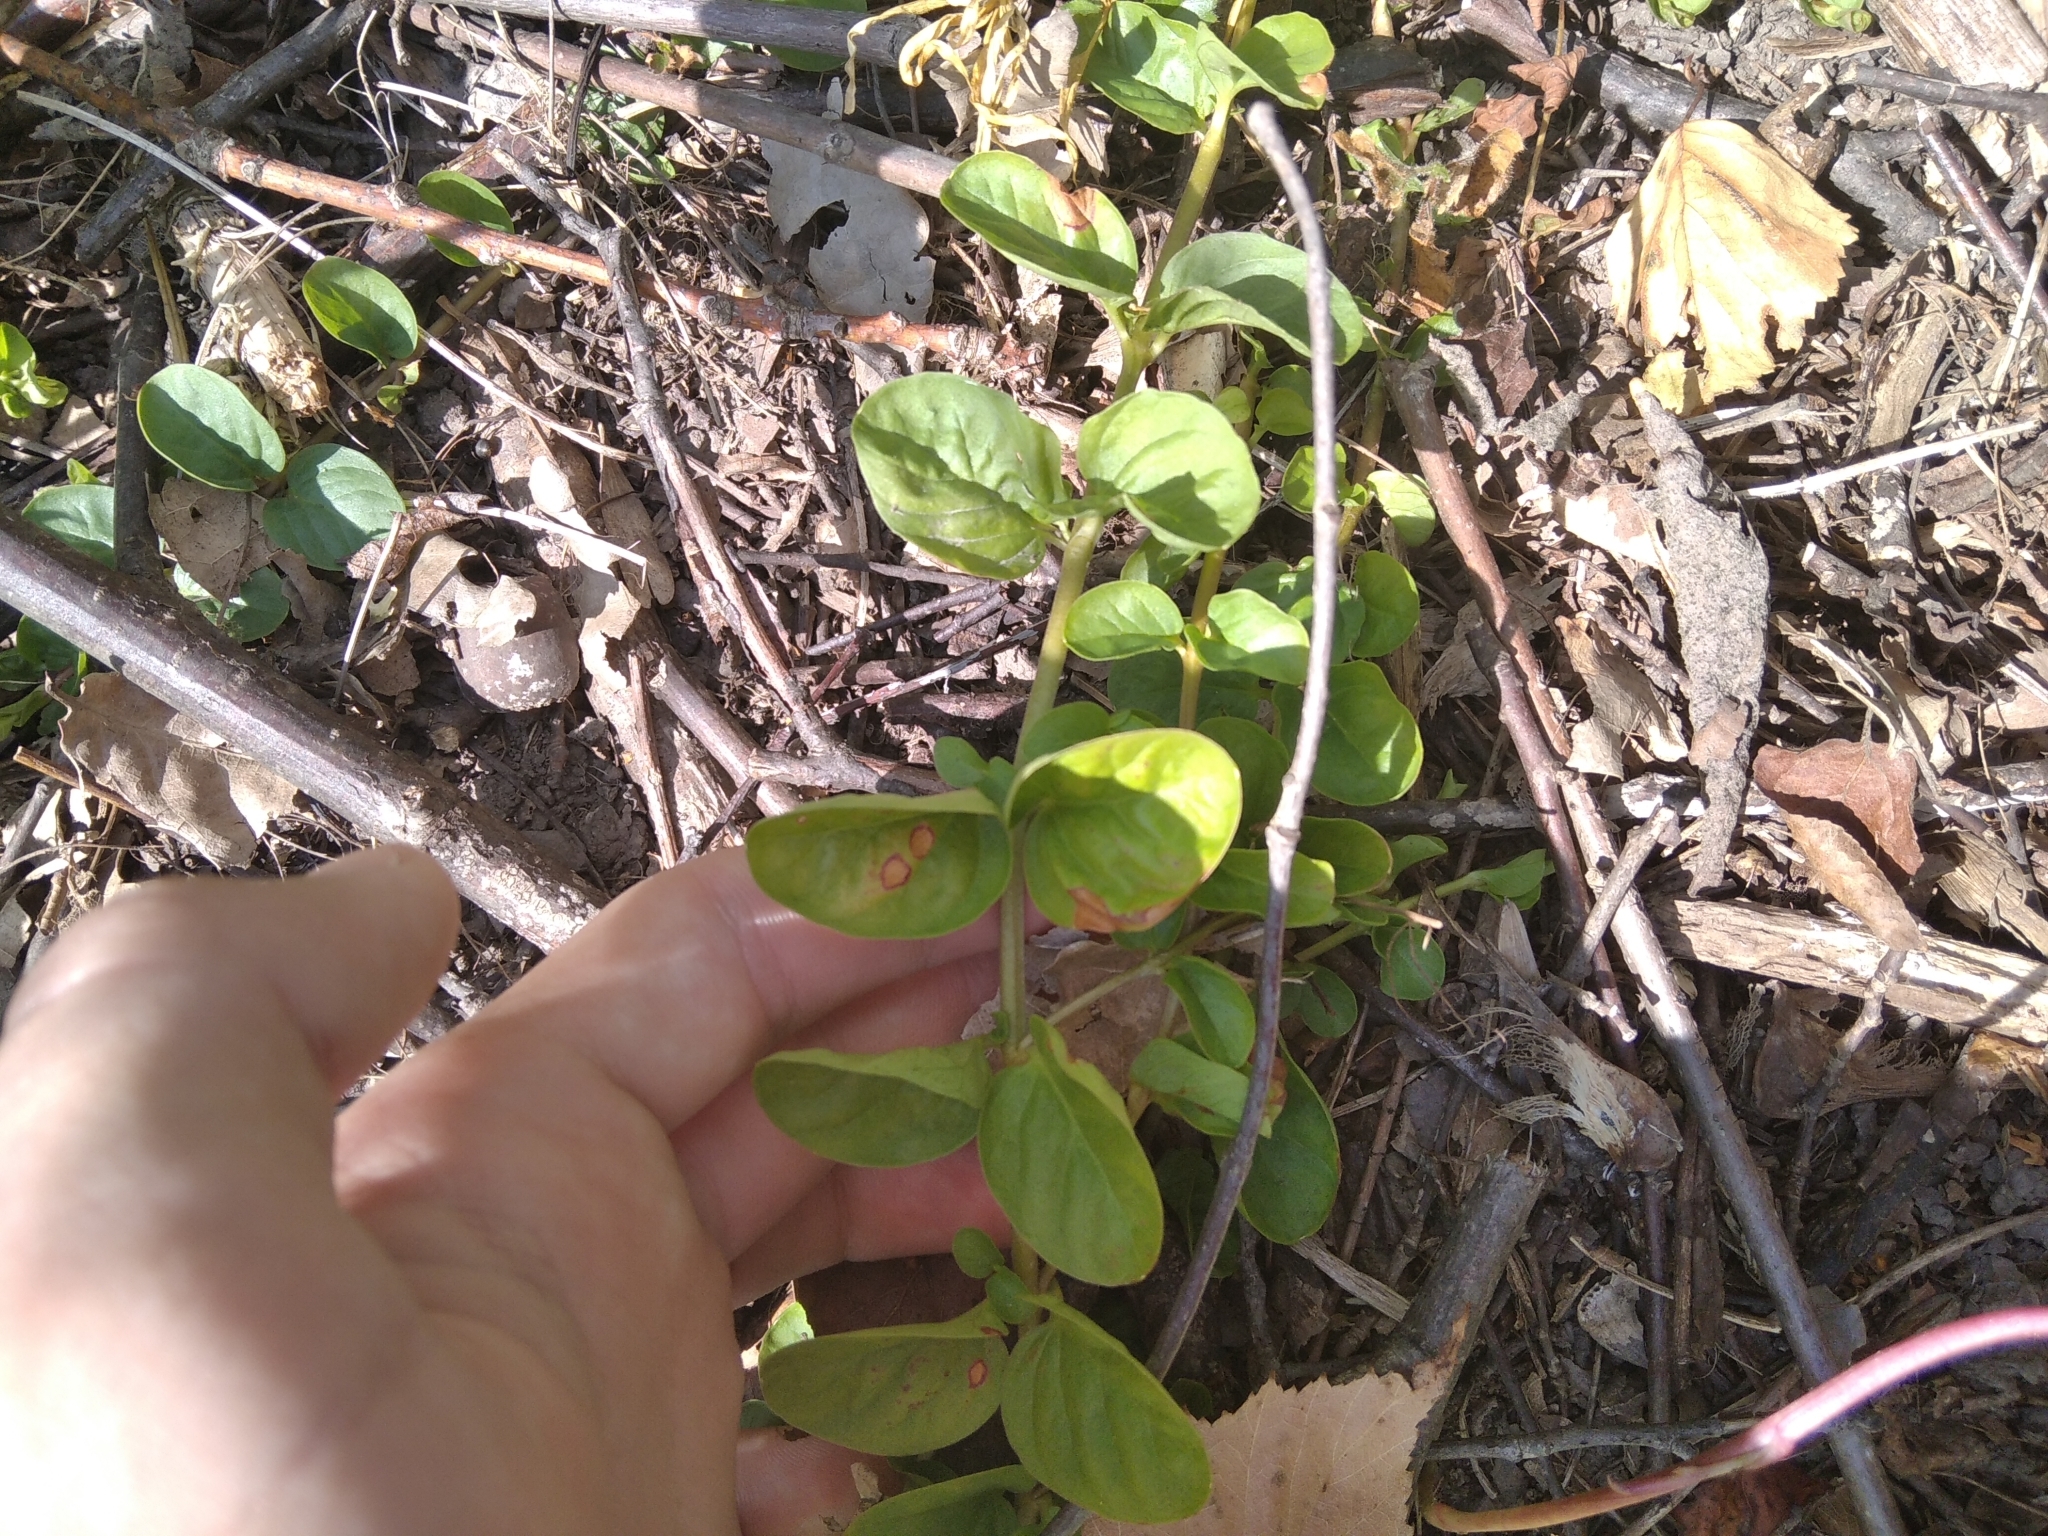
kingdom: Plantae
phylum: Tracheophyta
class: Magnoliopsida
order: Ericales
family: Primulaceae
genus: Lysimachia
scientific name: Lysimachia nummularia
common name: Moneywort
